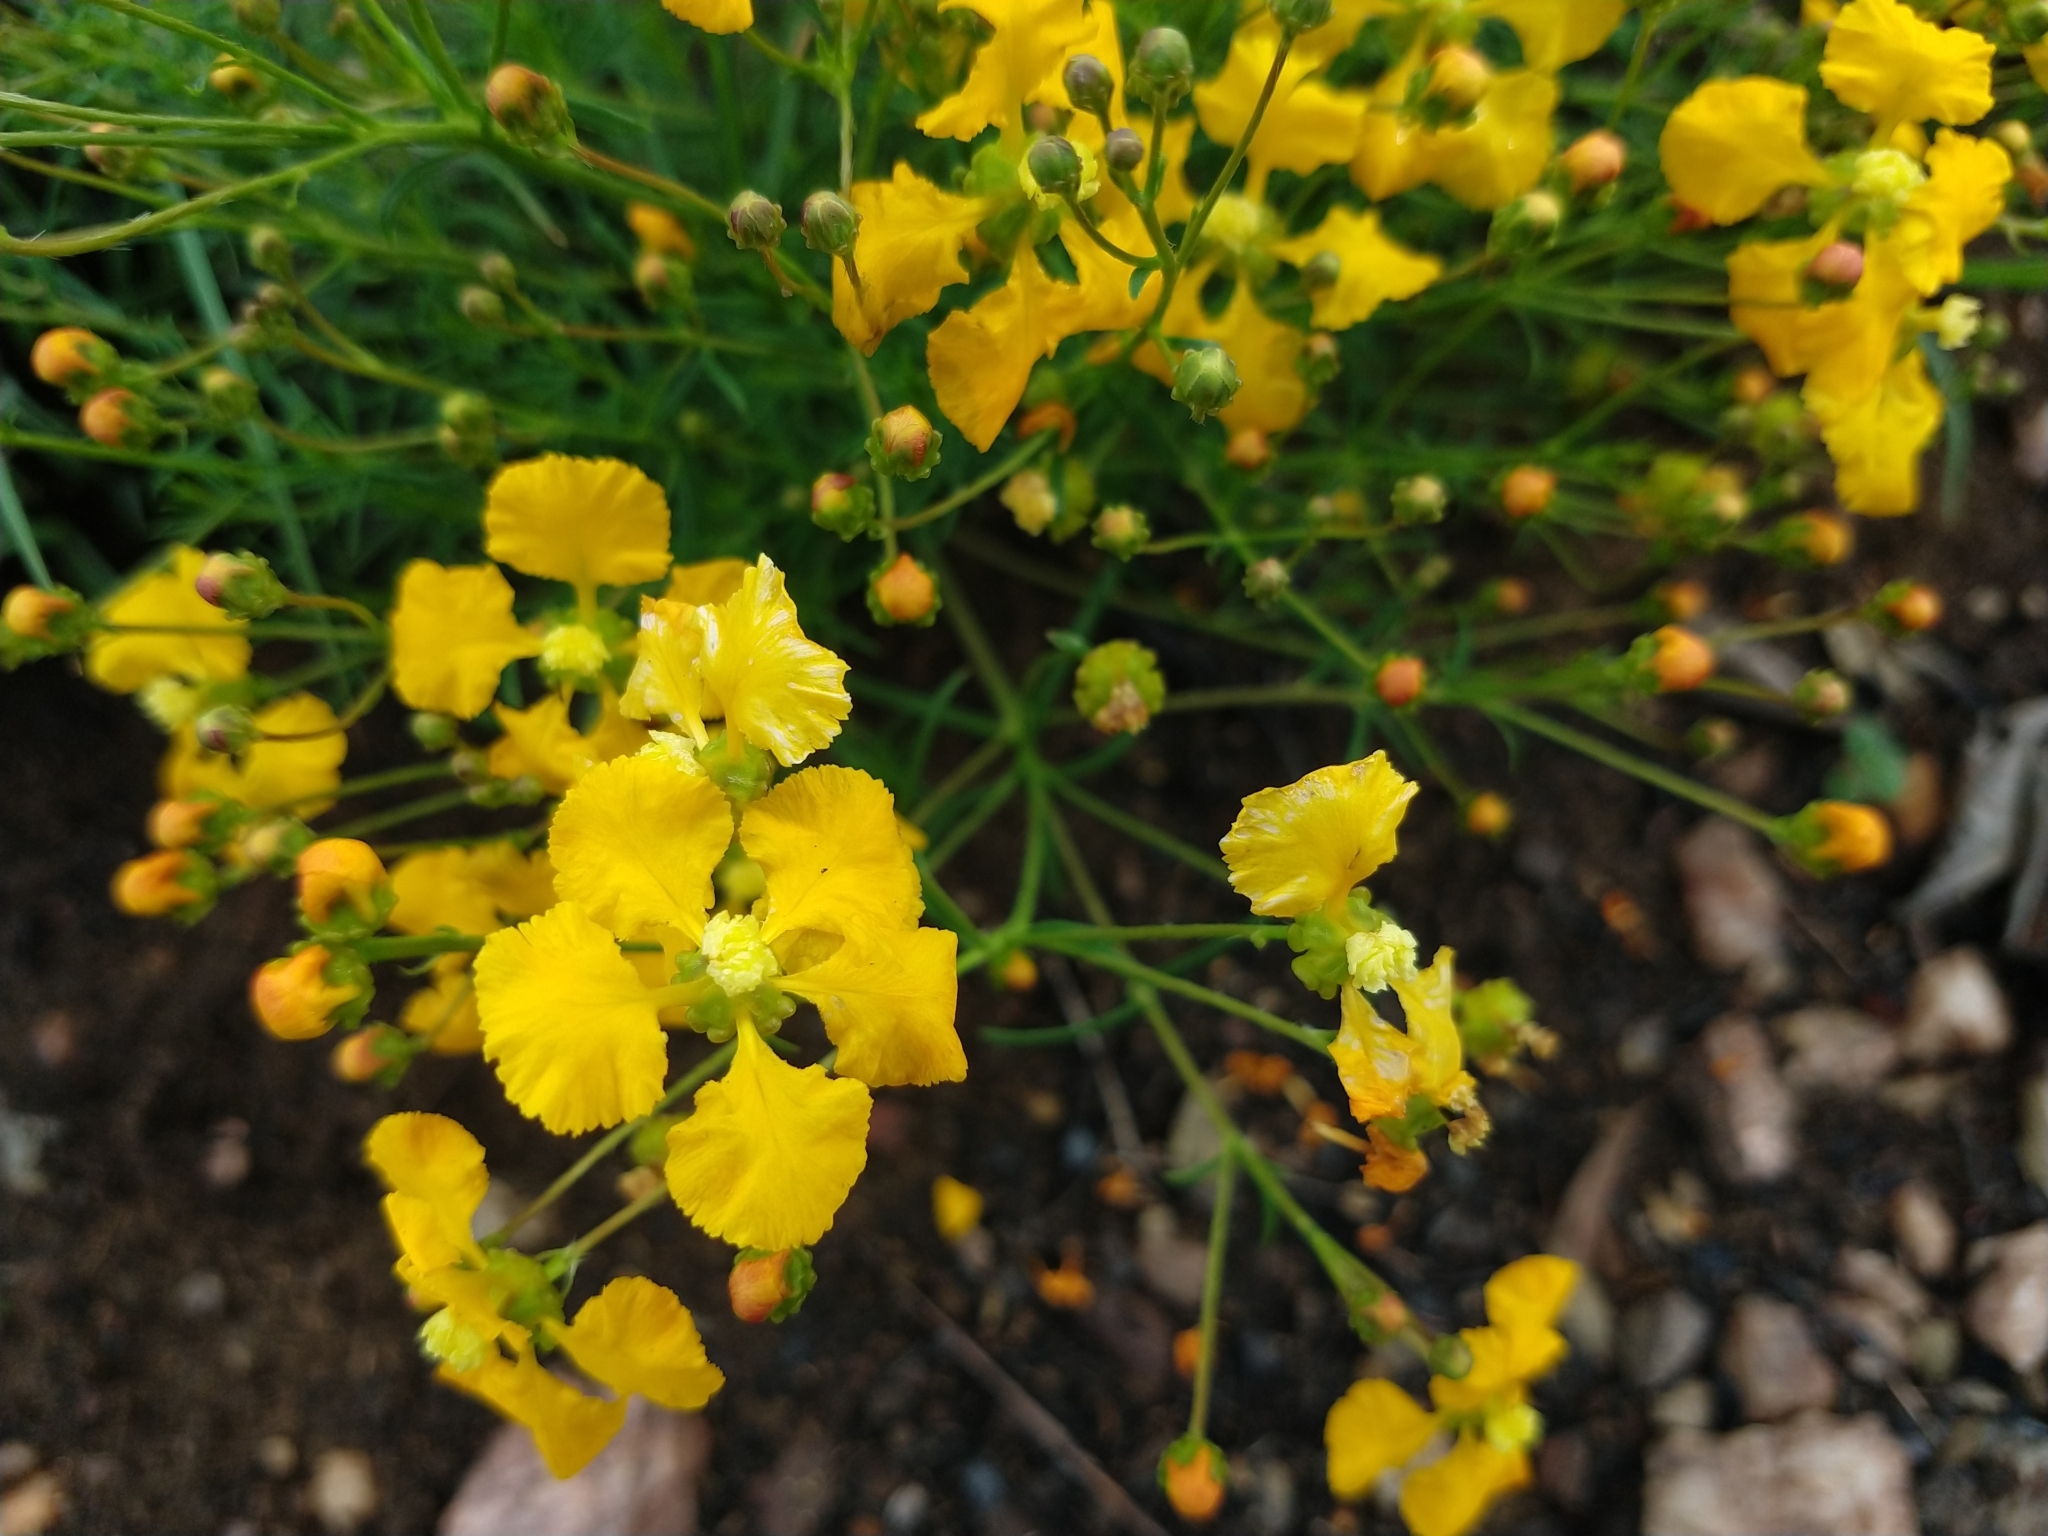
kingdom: Plantae
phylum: Tracheophyta
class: Magnoliopsida
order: Malpighiales
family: Malpighiaceae
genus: Camarea
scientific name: Camarea ericoides
